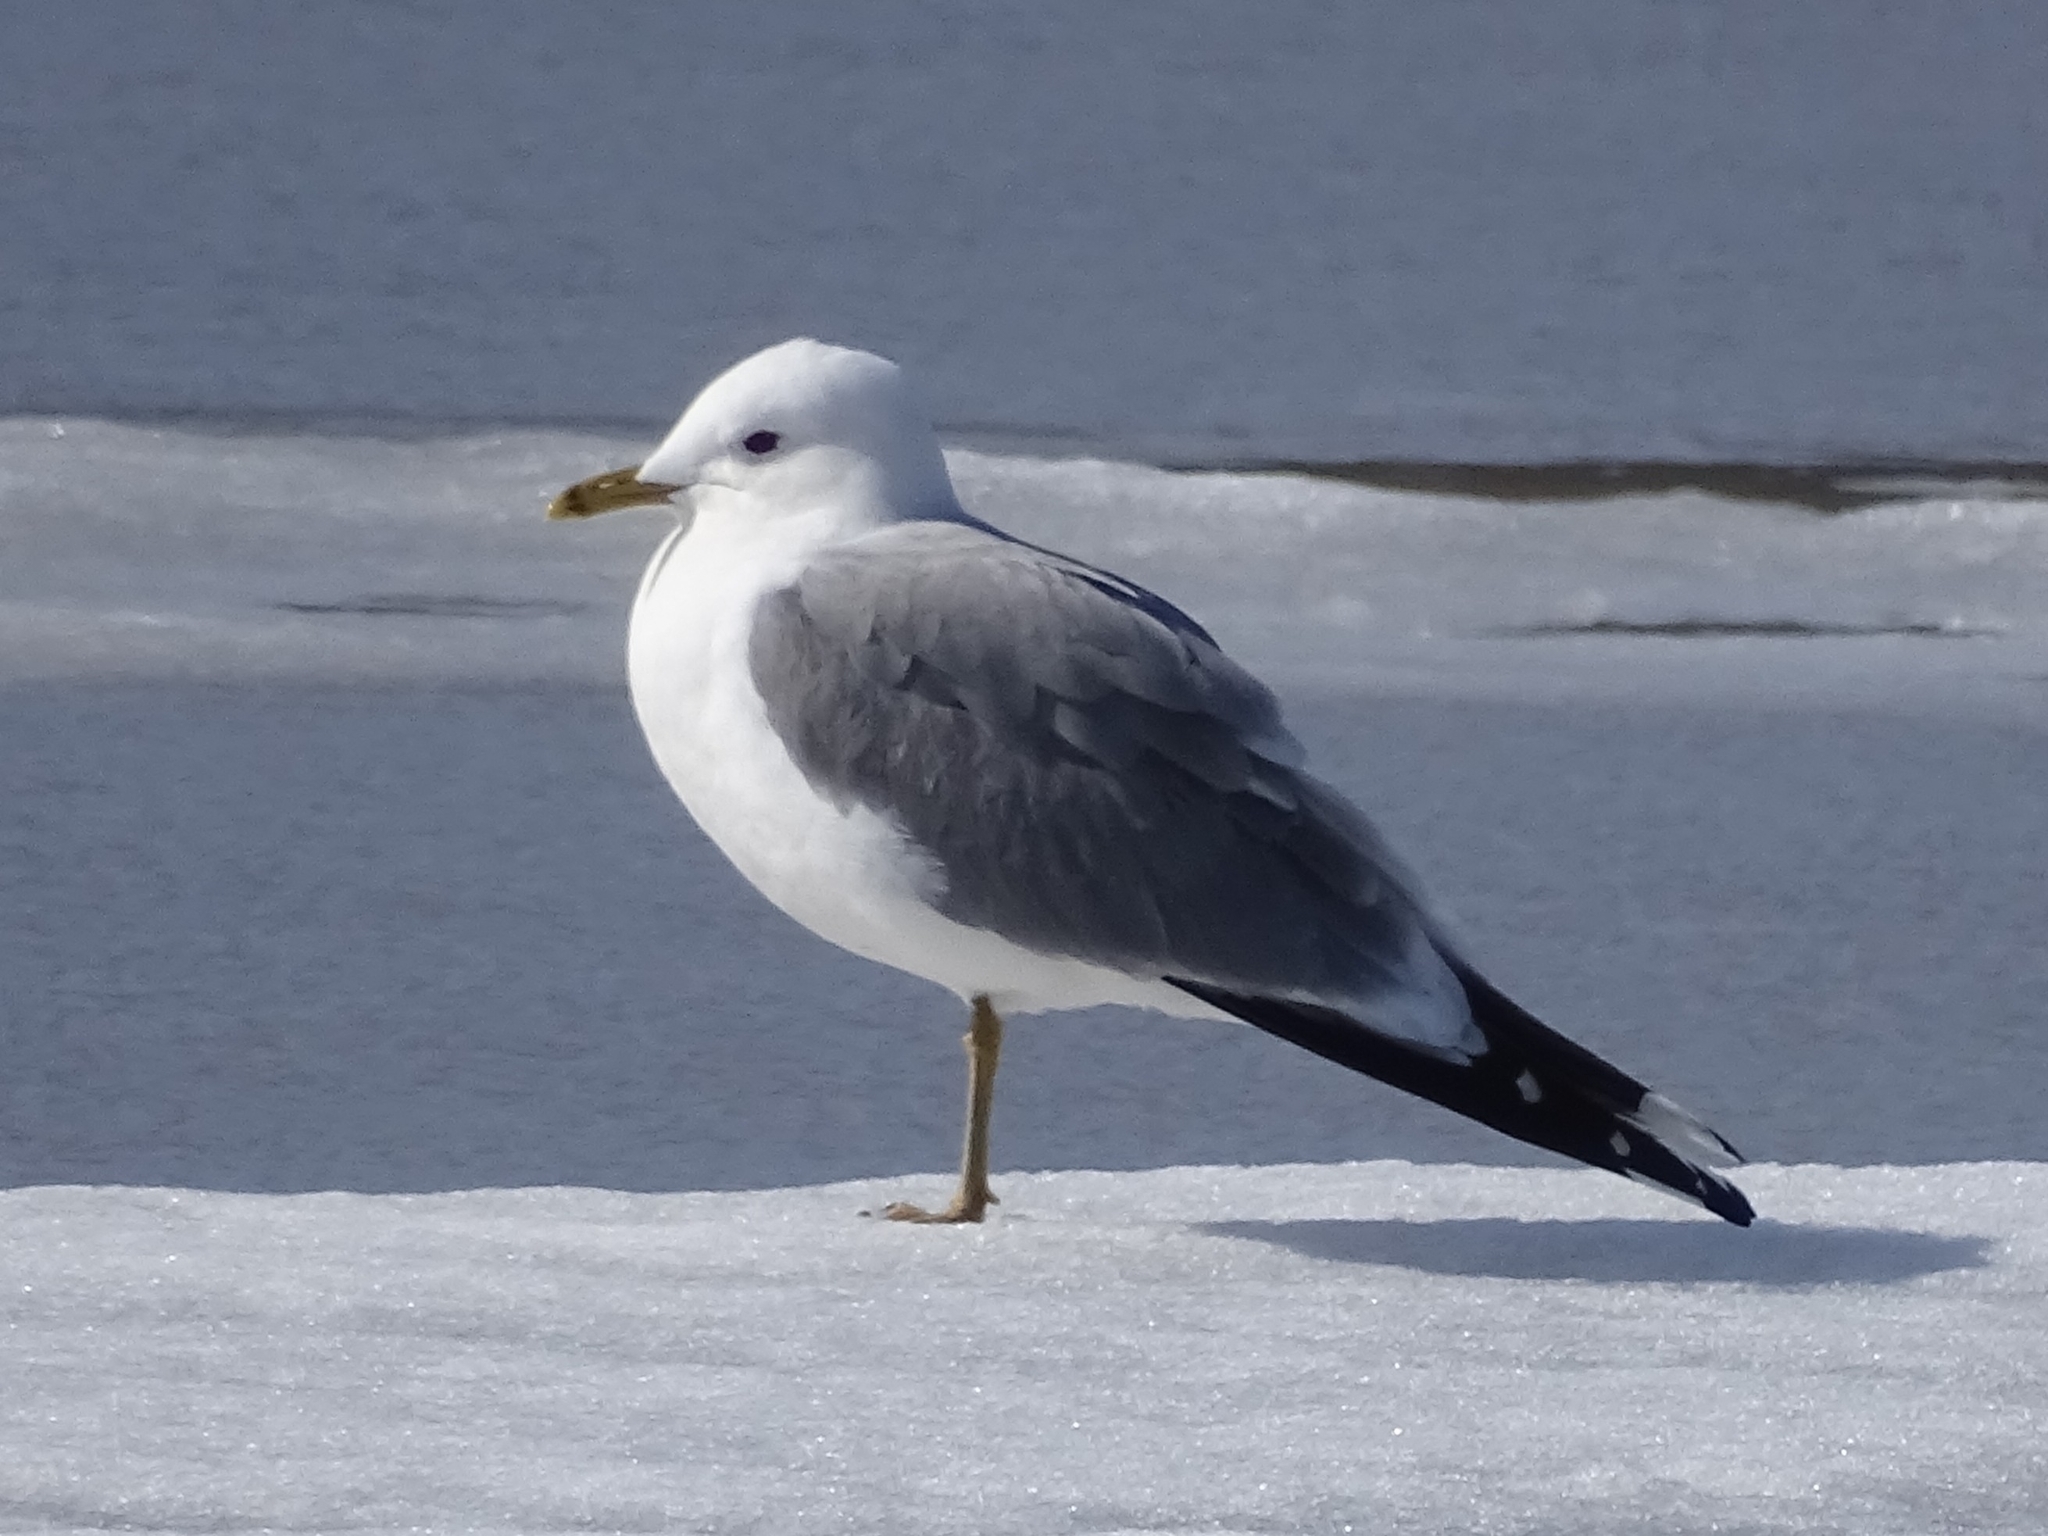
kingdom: Animalia
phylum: Chordata
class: Aves
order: Charadriiformes
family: Laridae
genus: Larus
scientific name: Larus canus
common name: Mew gull
